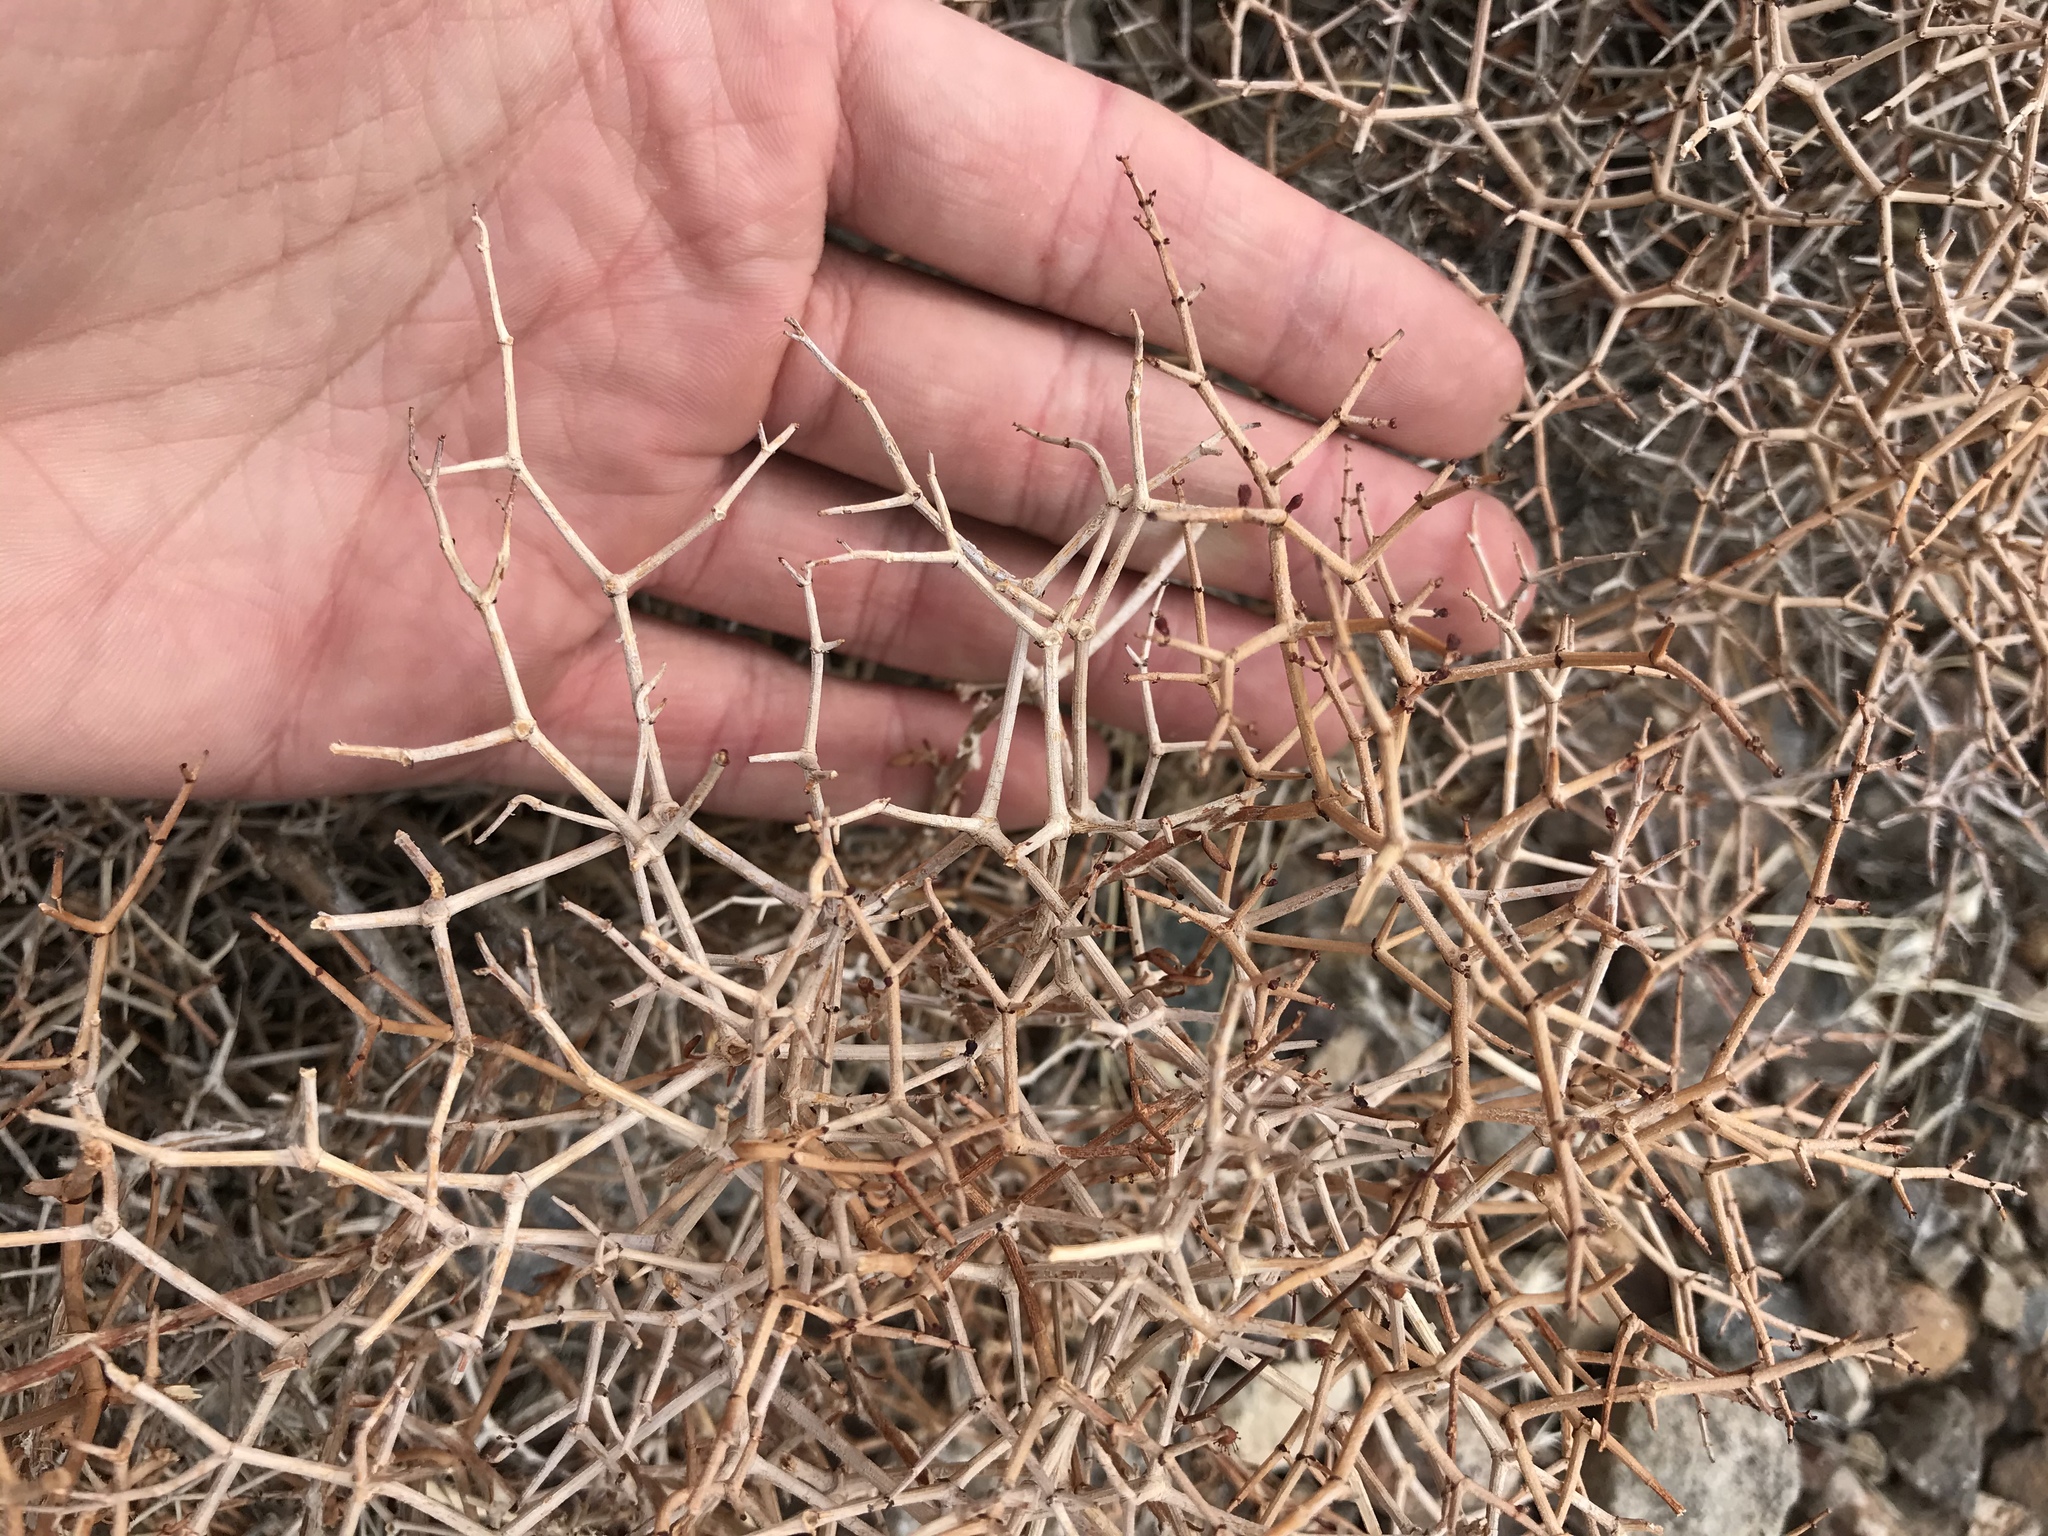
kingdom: Plantae
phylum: Tracheophyta
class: Magnoliopsida
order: Caryophyllales
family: Polygonaceae
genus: Eriogonum
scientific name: Eriogonum heermannii
